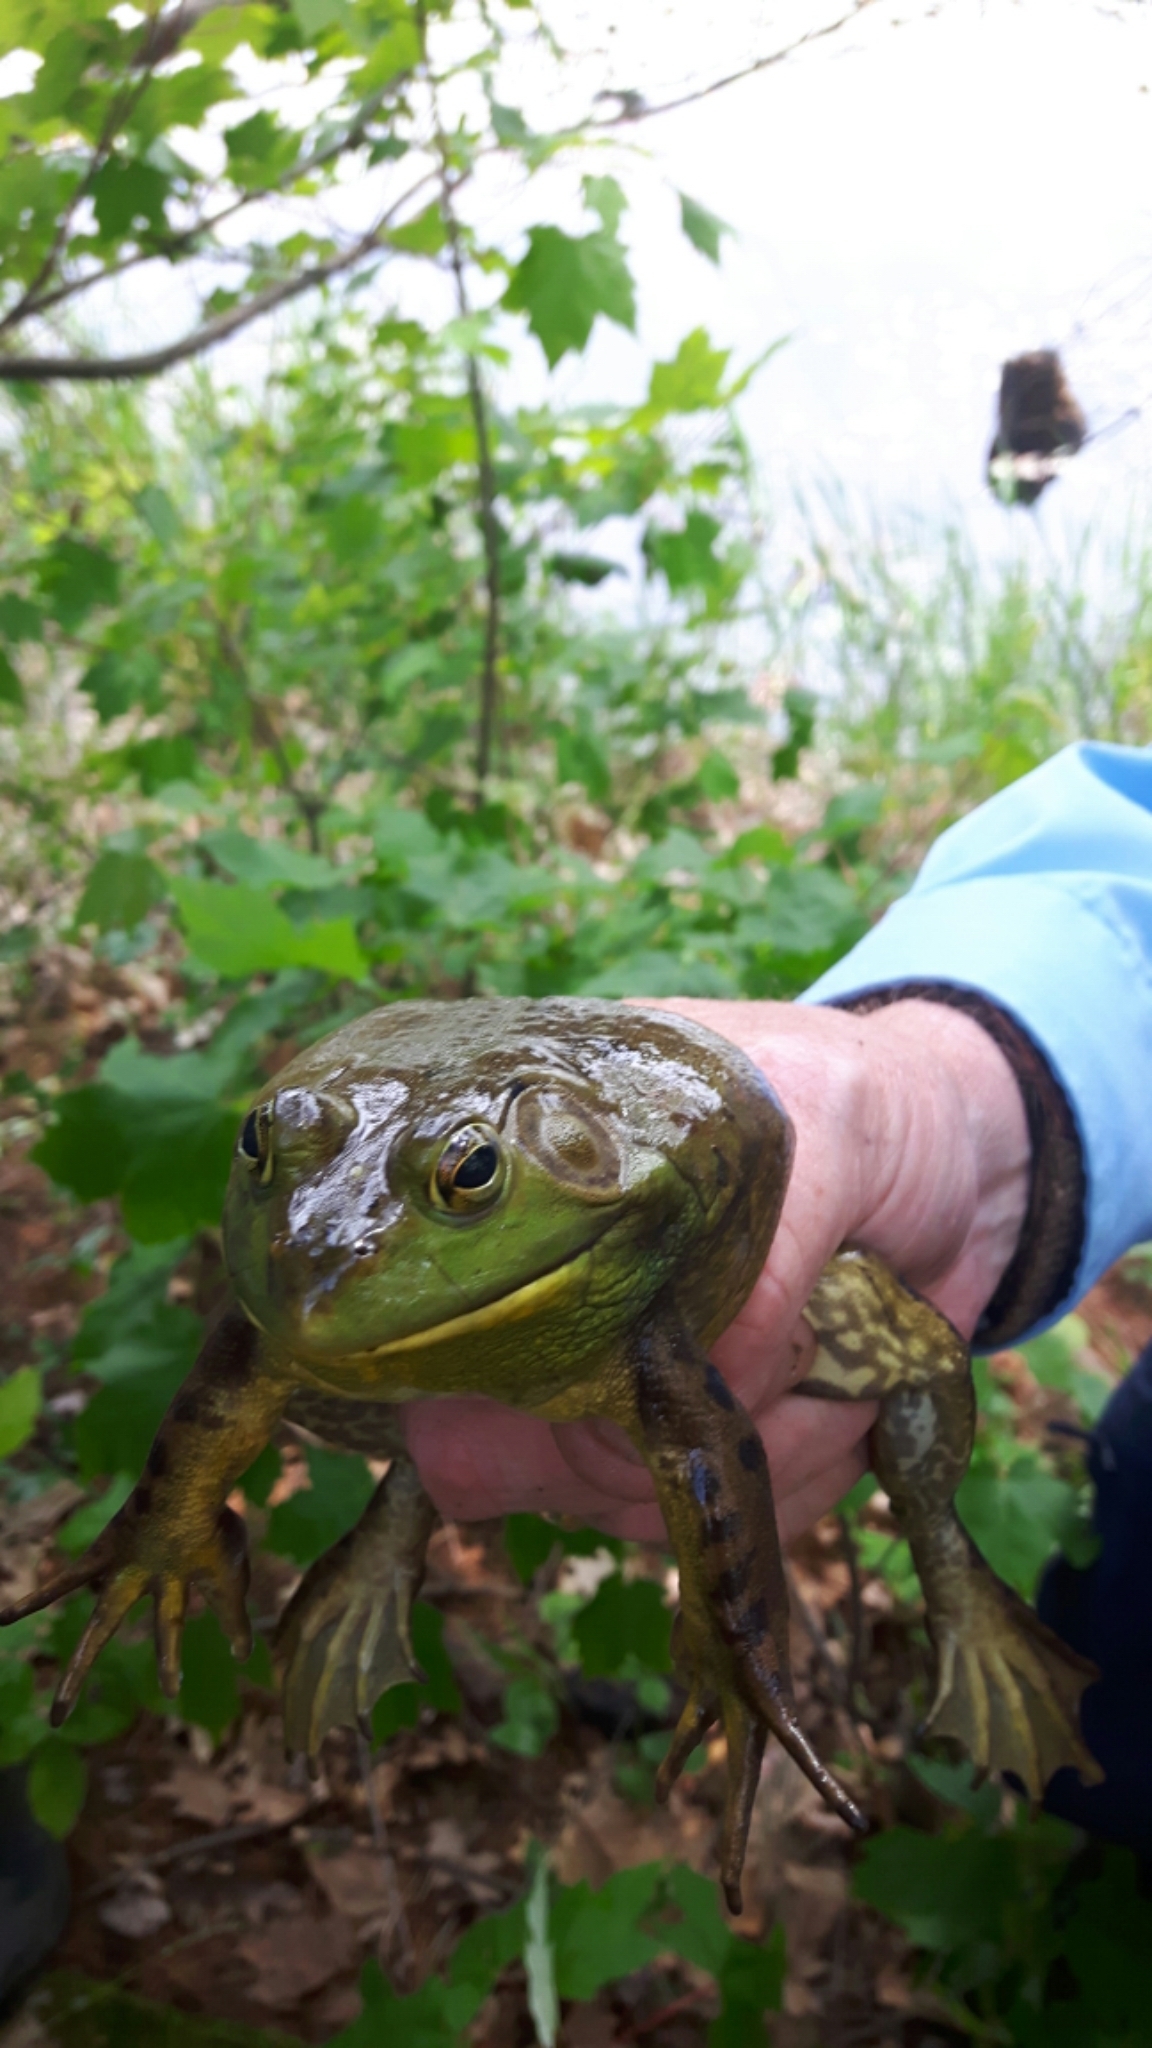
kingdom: Animalia
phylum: Chordata
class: Amphibia
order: Anura
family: Ranidae
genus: Lithobates
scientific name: Lithobates catesbeianus
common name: American bullfrog
